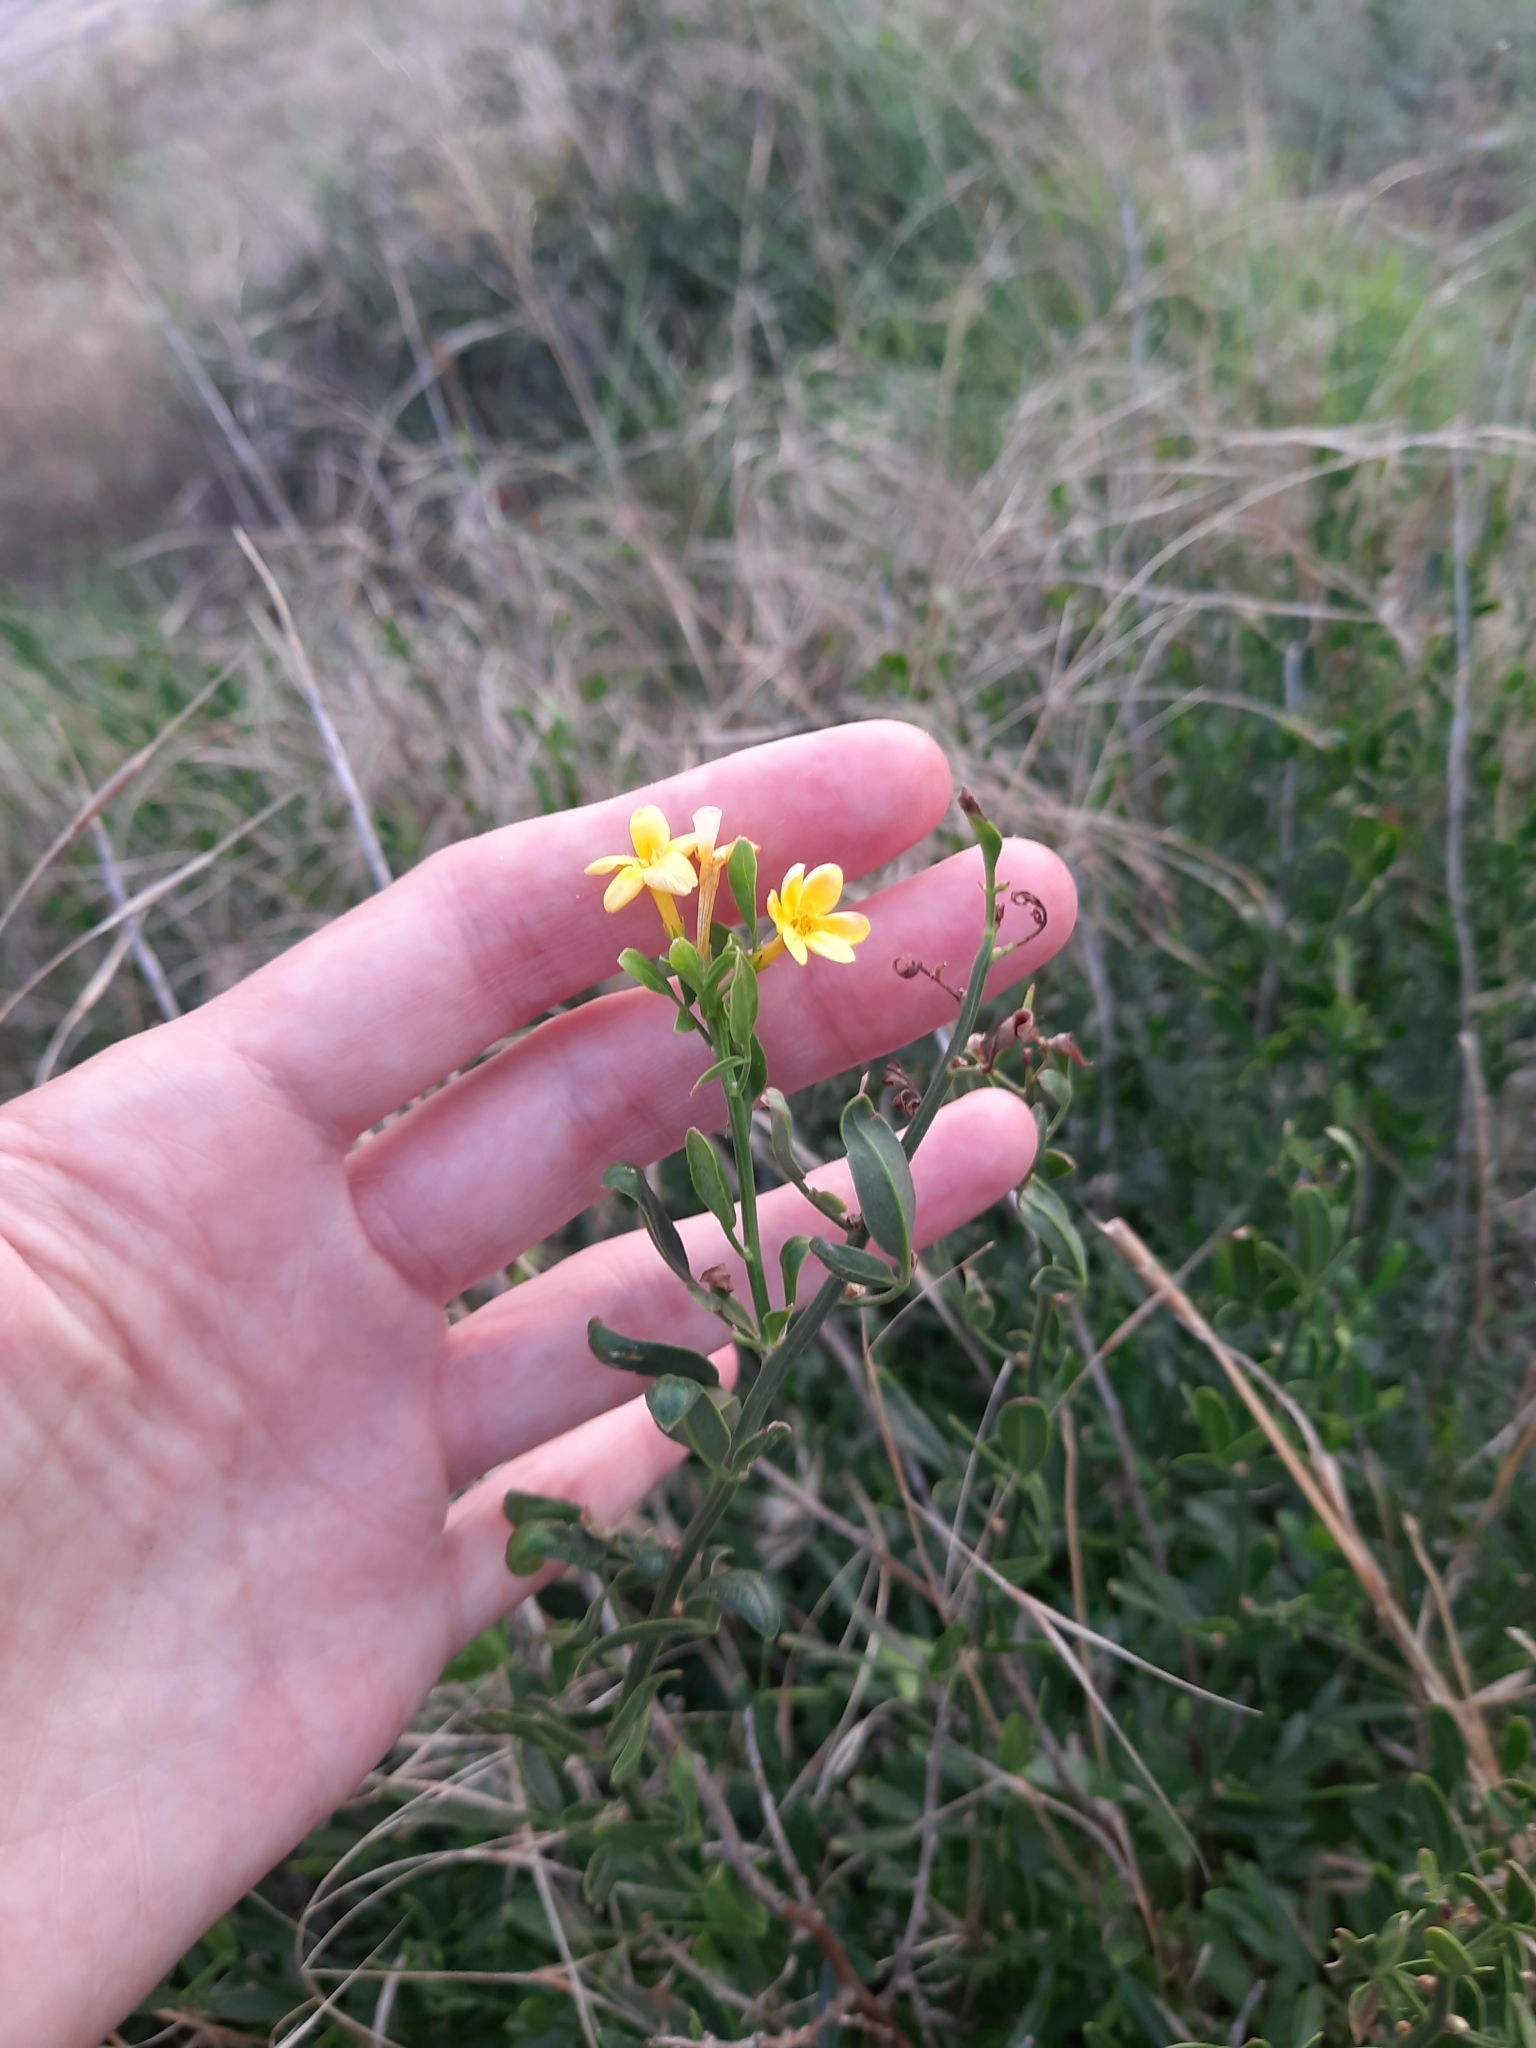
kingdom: Plantae
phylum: Tracheophyta
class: Magnoliopsida
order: Lamiales
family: Oleaceae
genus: Chrysojasminum
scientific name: Chrysojasminum fruticans
